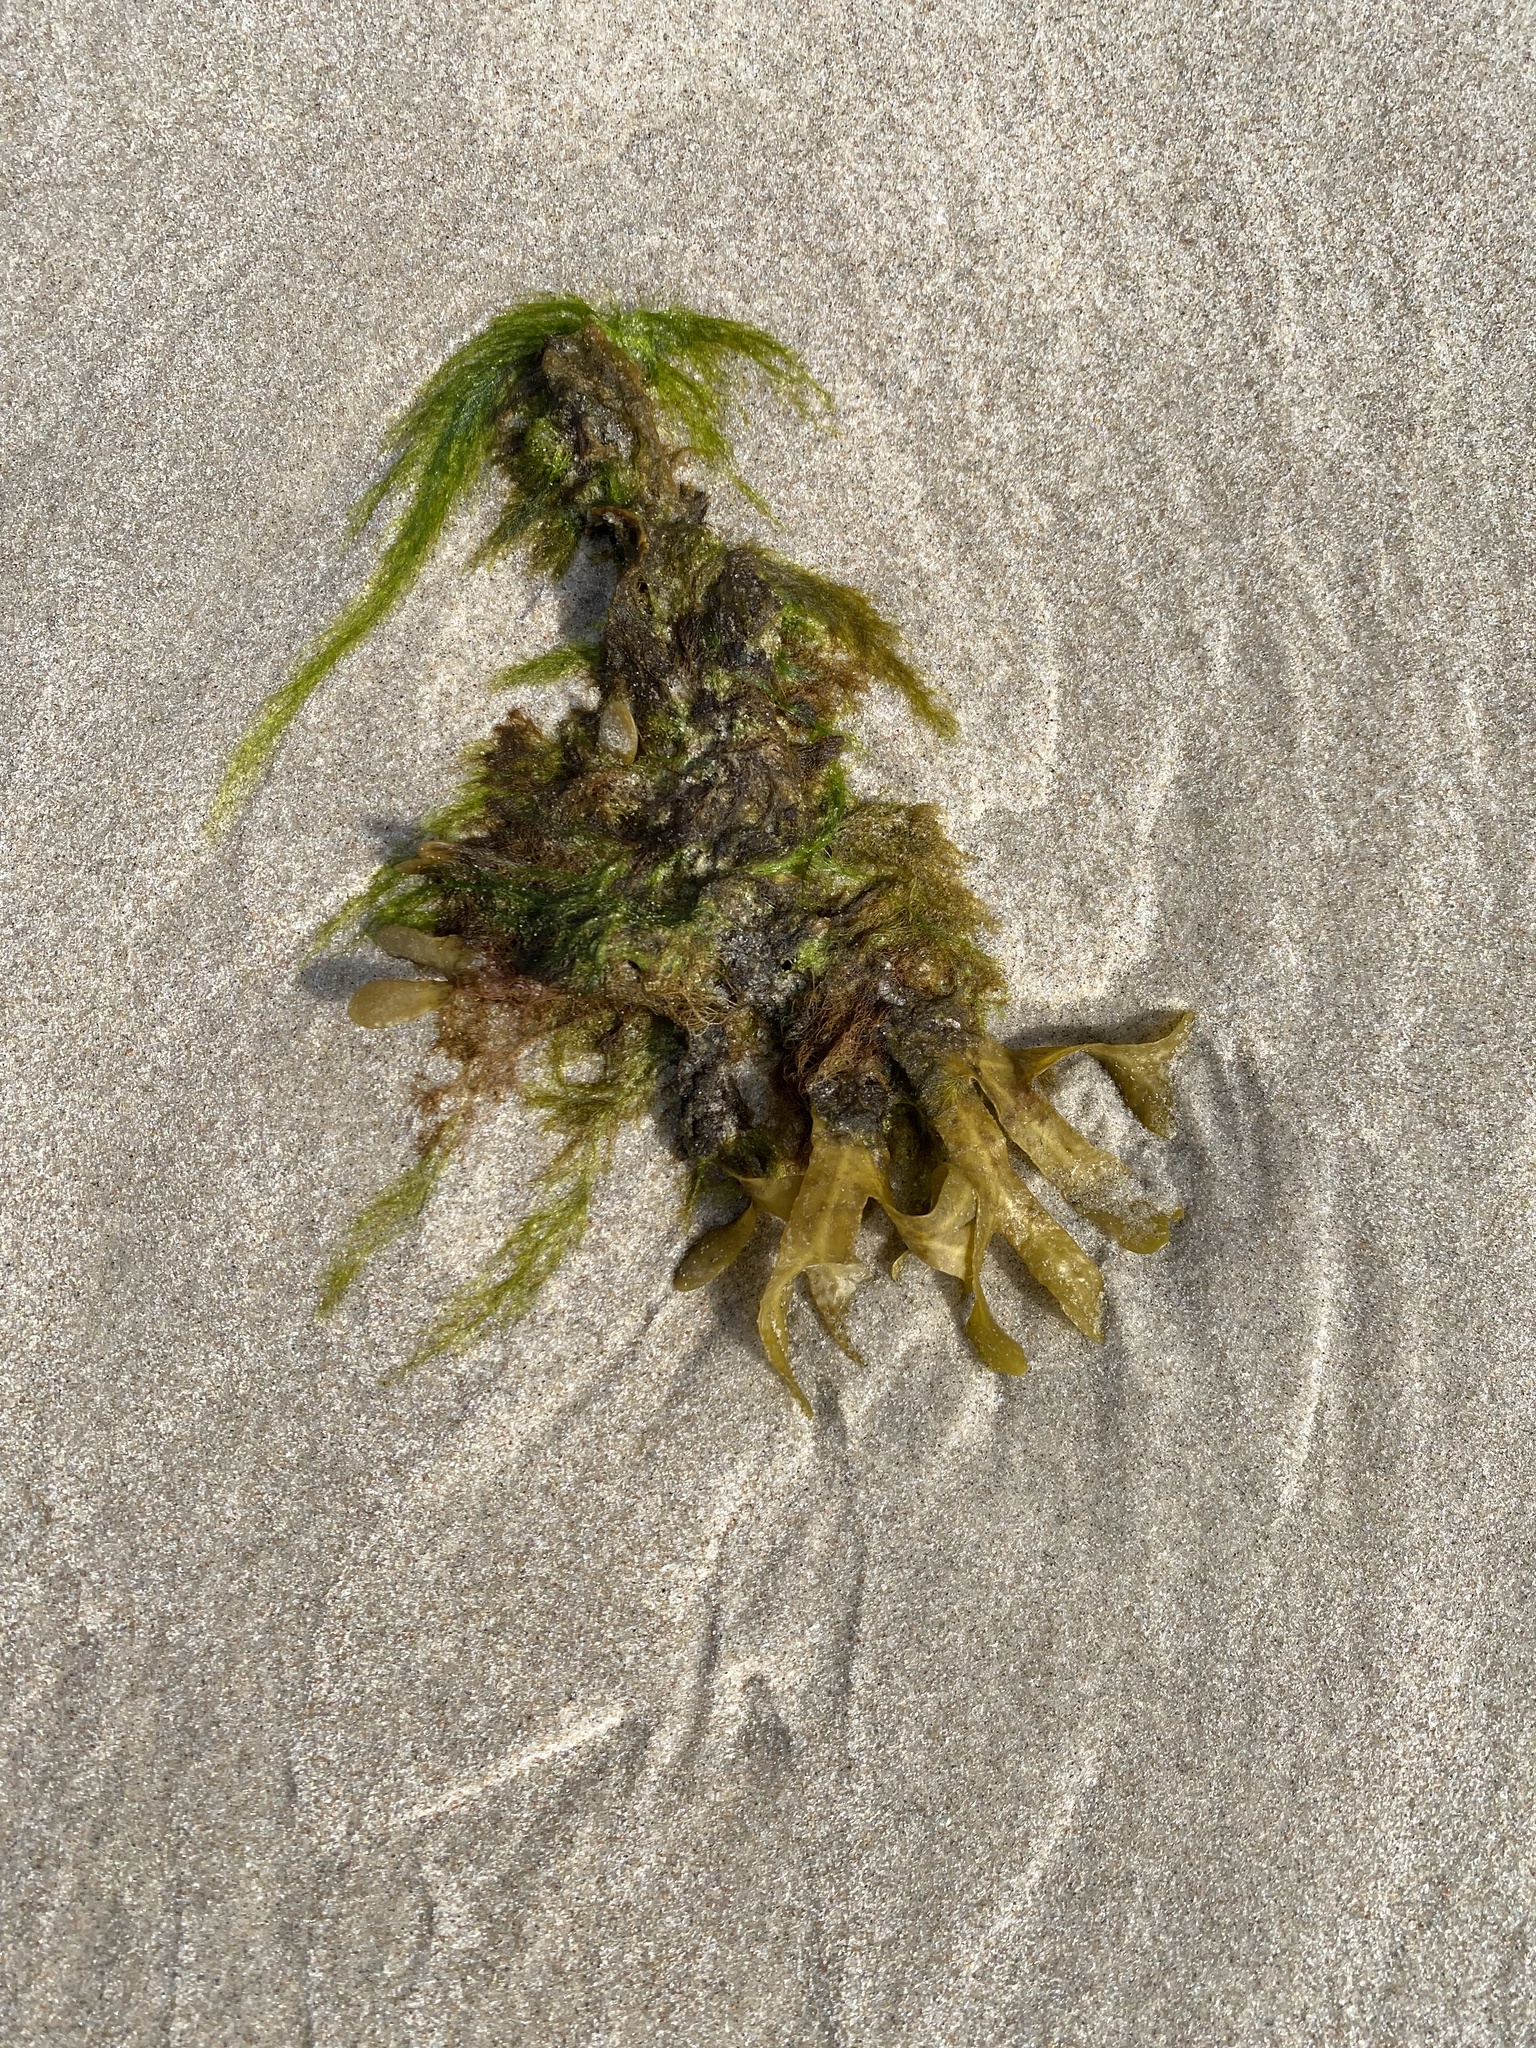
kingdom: Chromista
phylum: Ochrophyta
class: Phaeophyceae
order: Fucales
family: Fucaceae
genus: Fucus
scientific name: Fucus vesiculosus
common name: Bladder wrack
